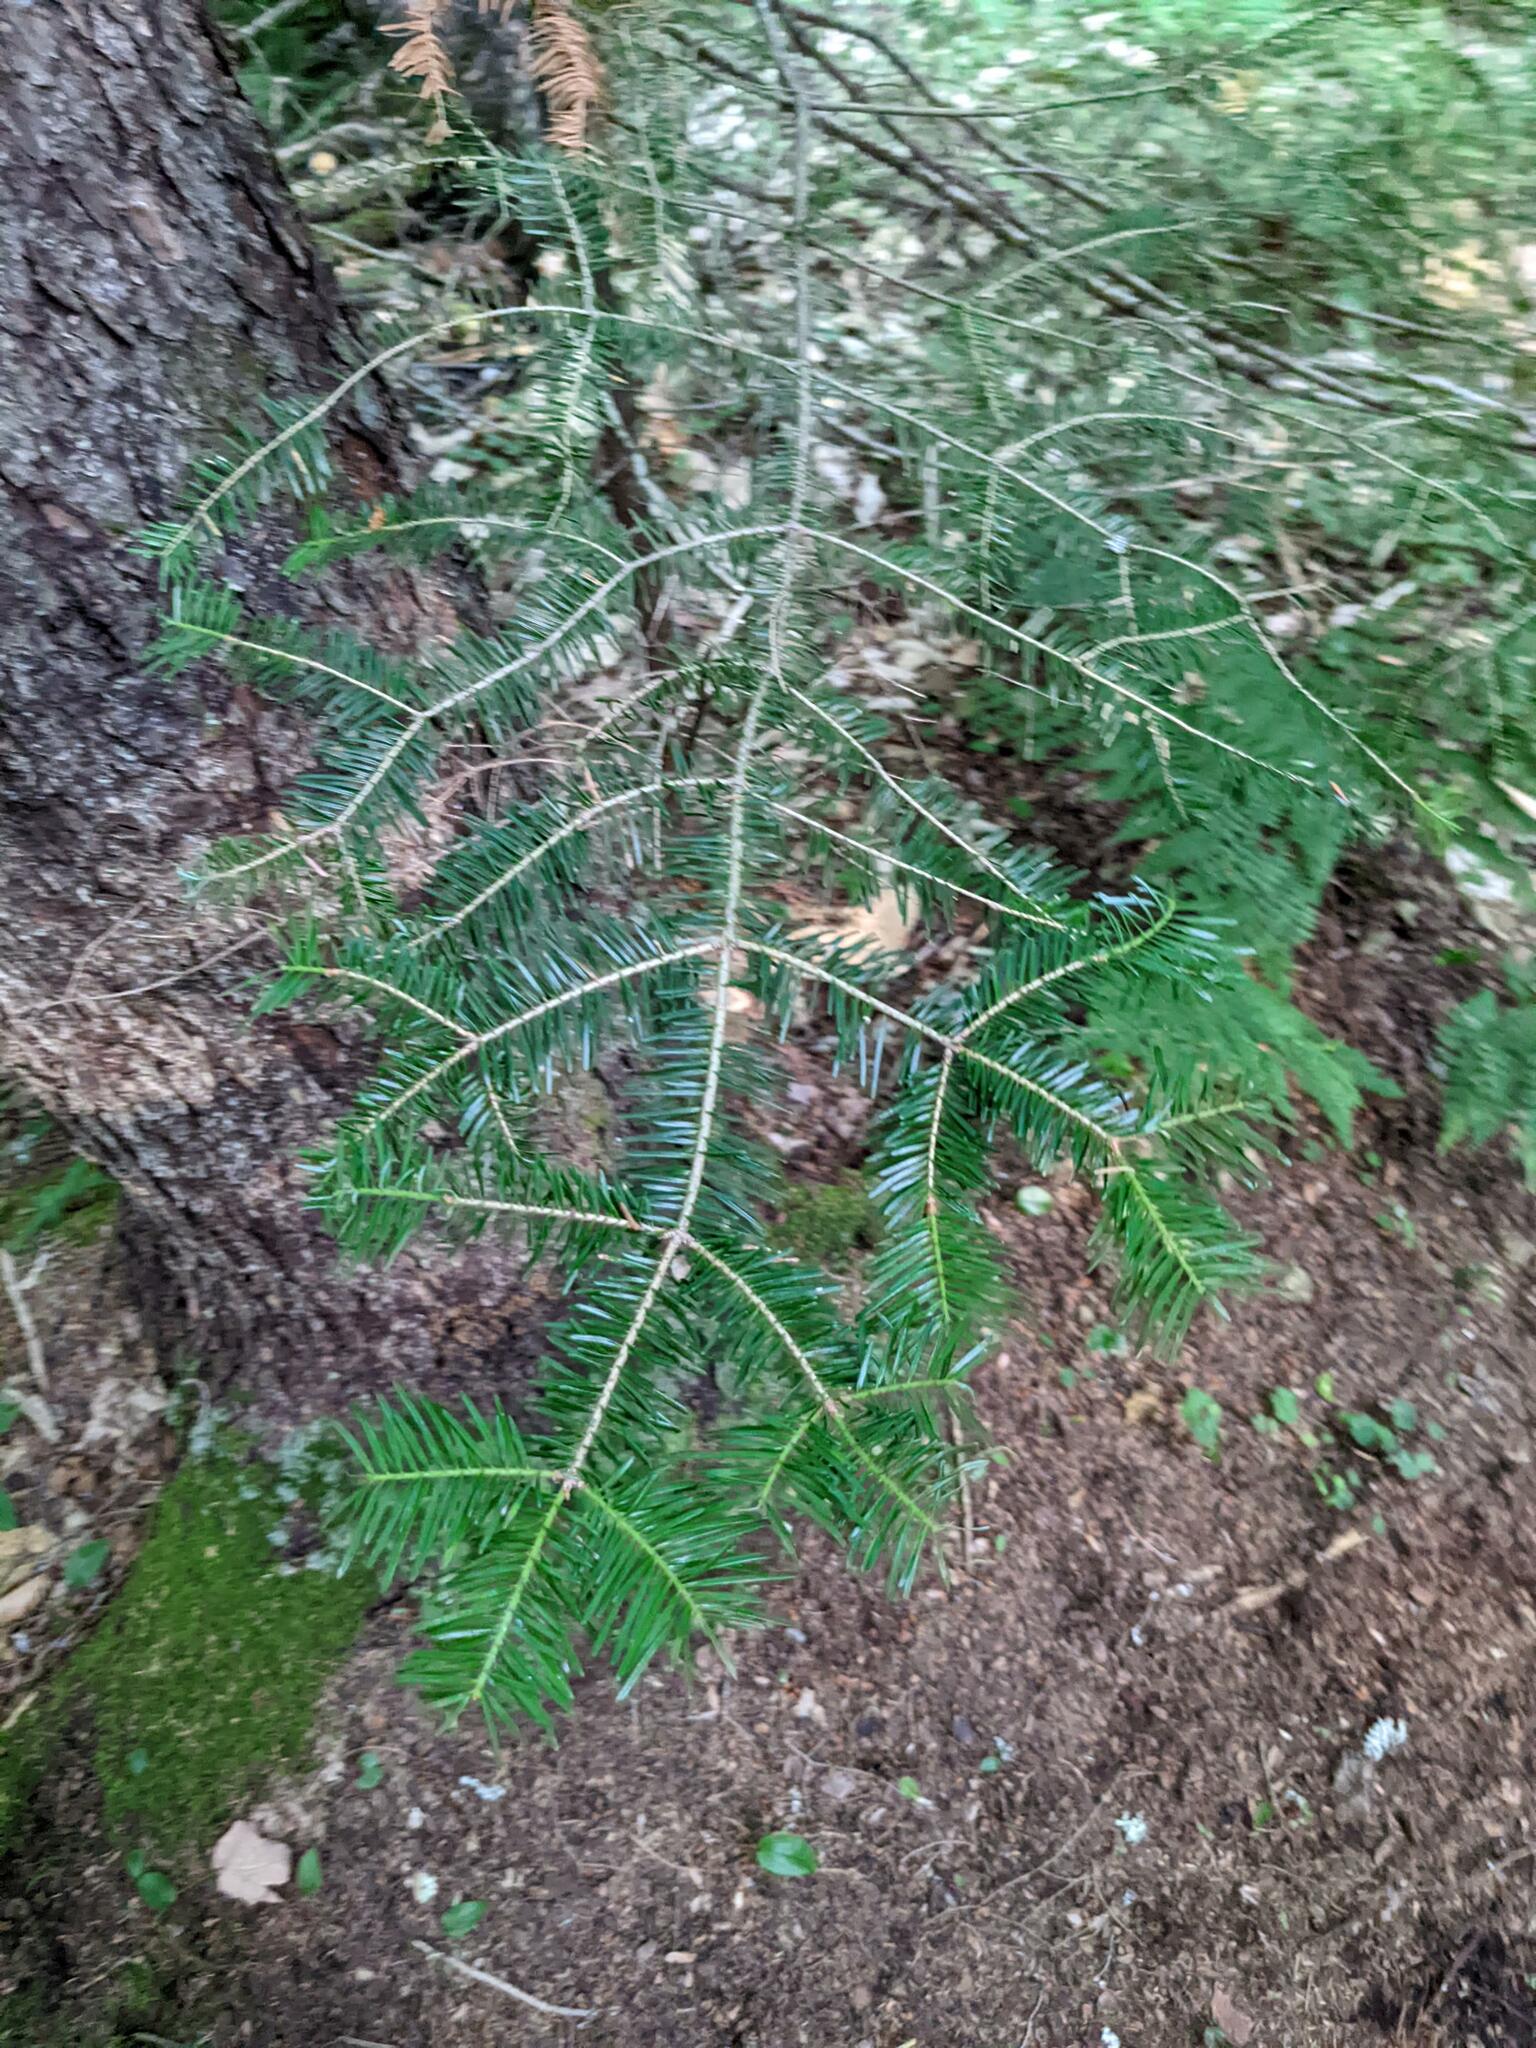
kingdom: Plantae
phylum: Tracheophyta
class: Pinopsida
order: Pinales
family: Pinaceae
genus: Abies
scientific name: Abies balsamea
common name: Balsam fir
